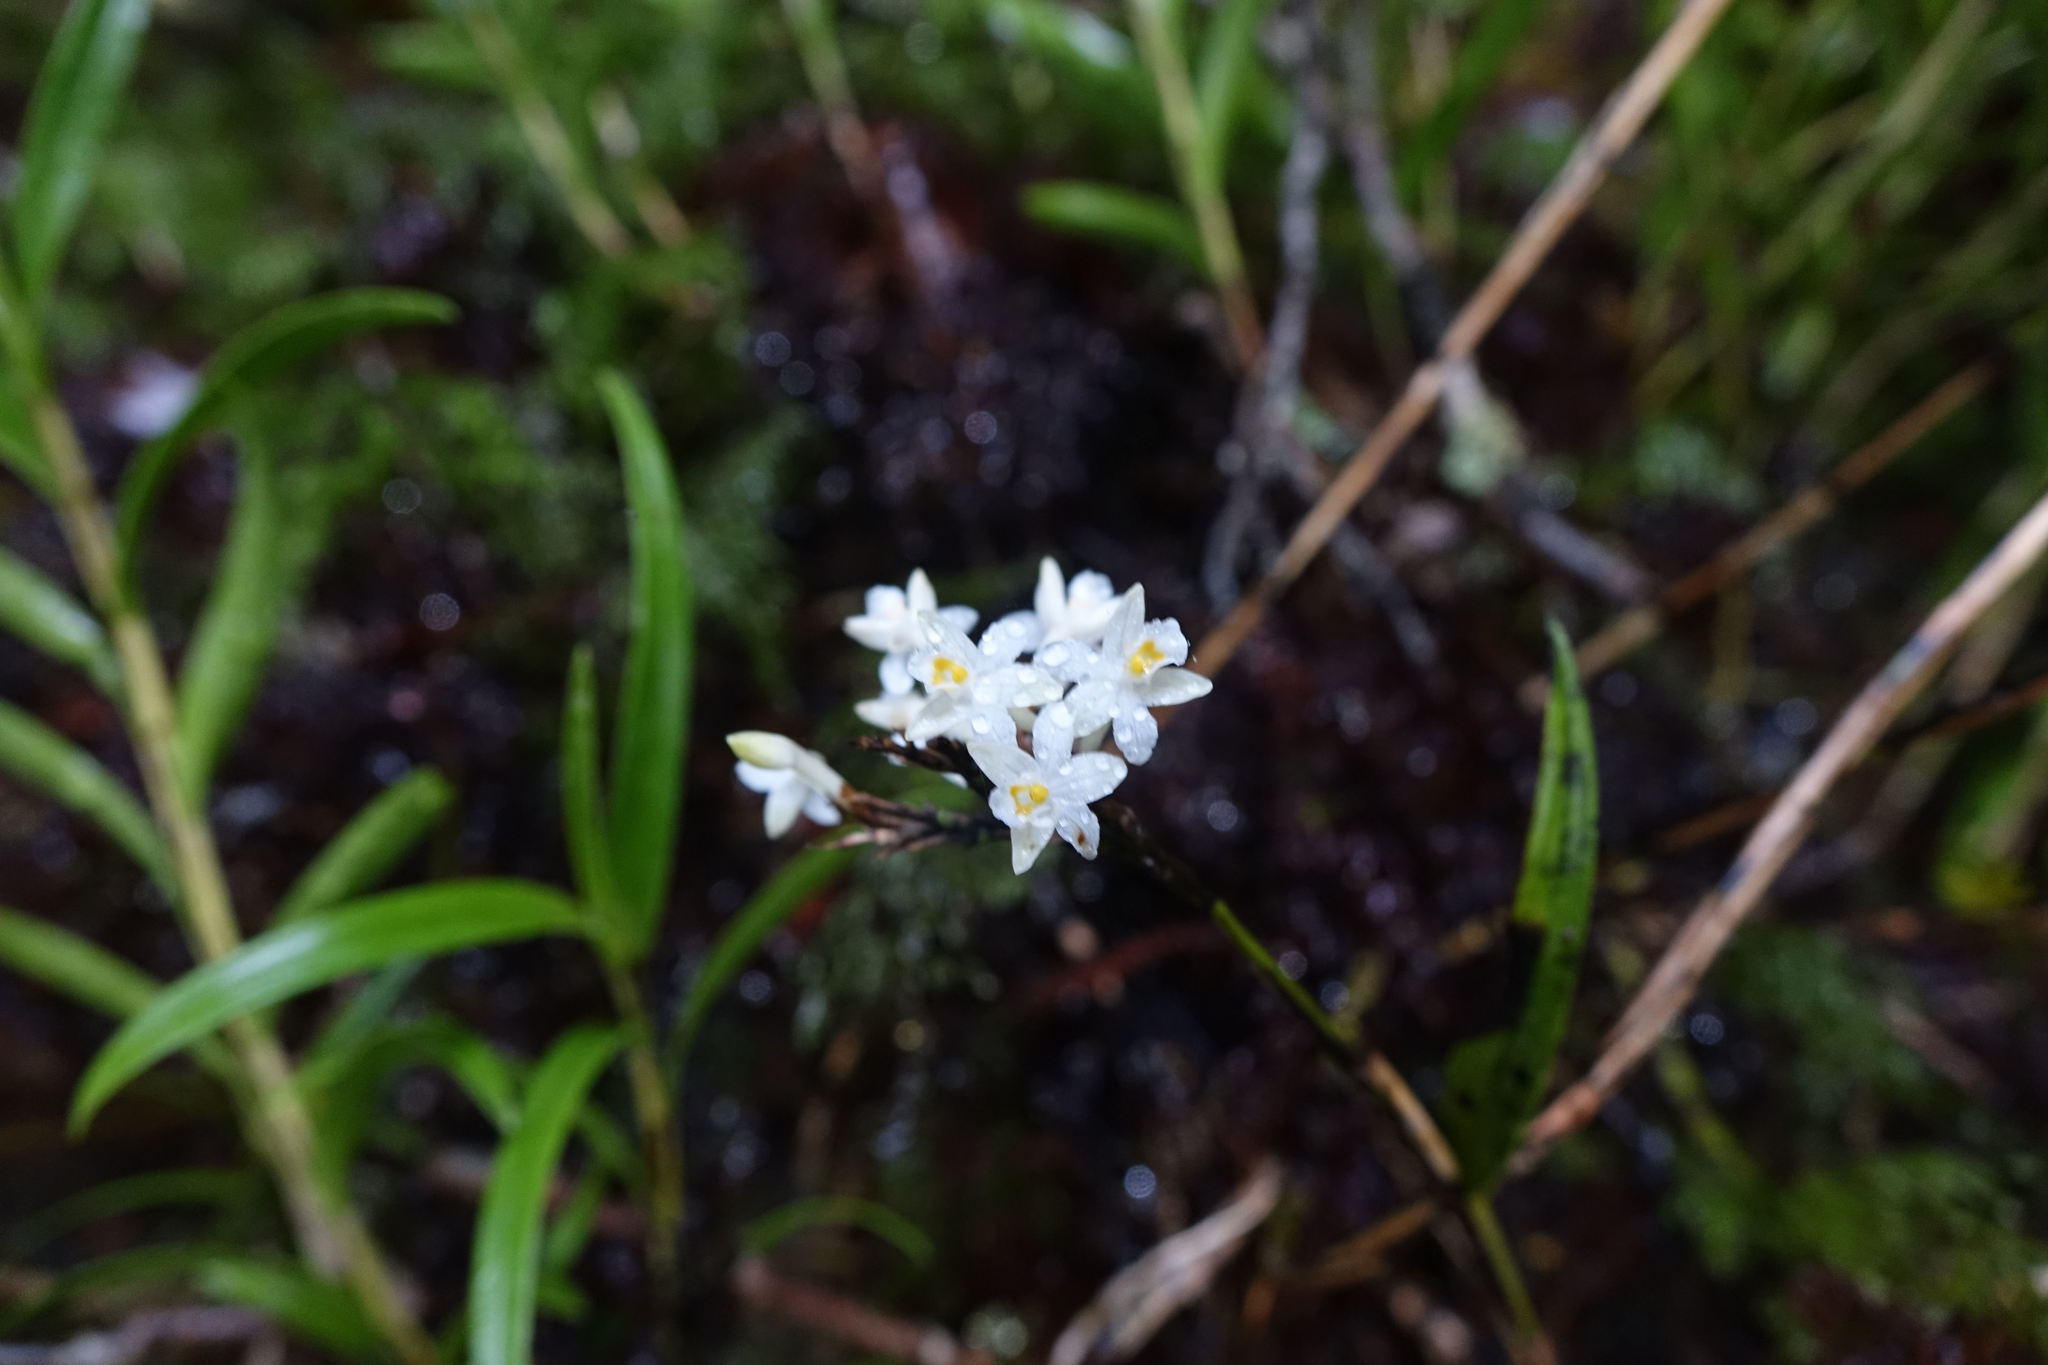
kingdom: Plantae
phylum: Tracheophyta
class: Liliopsida
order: Asparagales
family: Orchidaceae
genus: Earina
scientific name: Earina autumnalis
